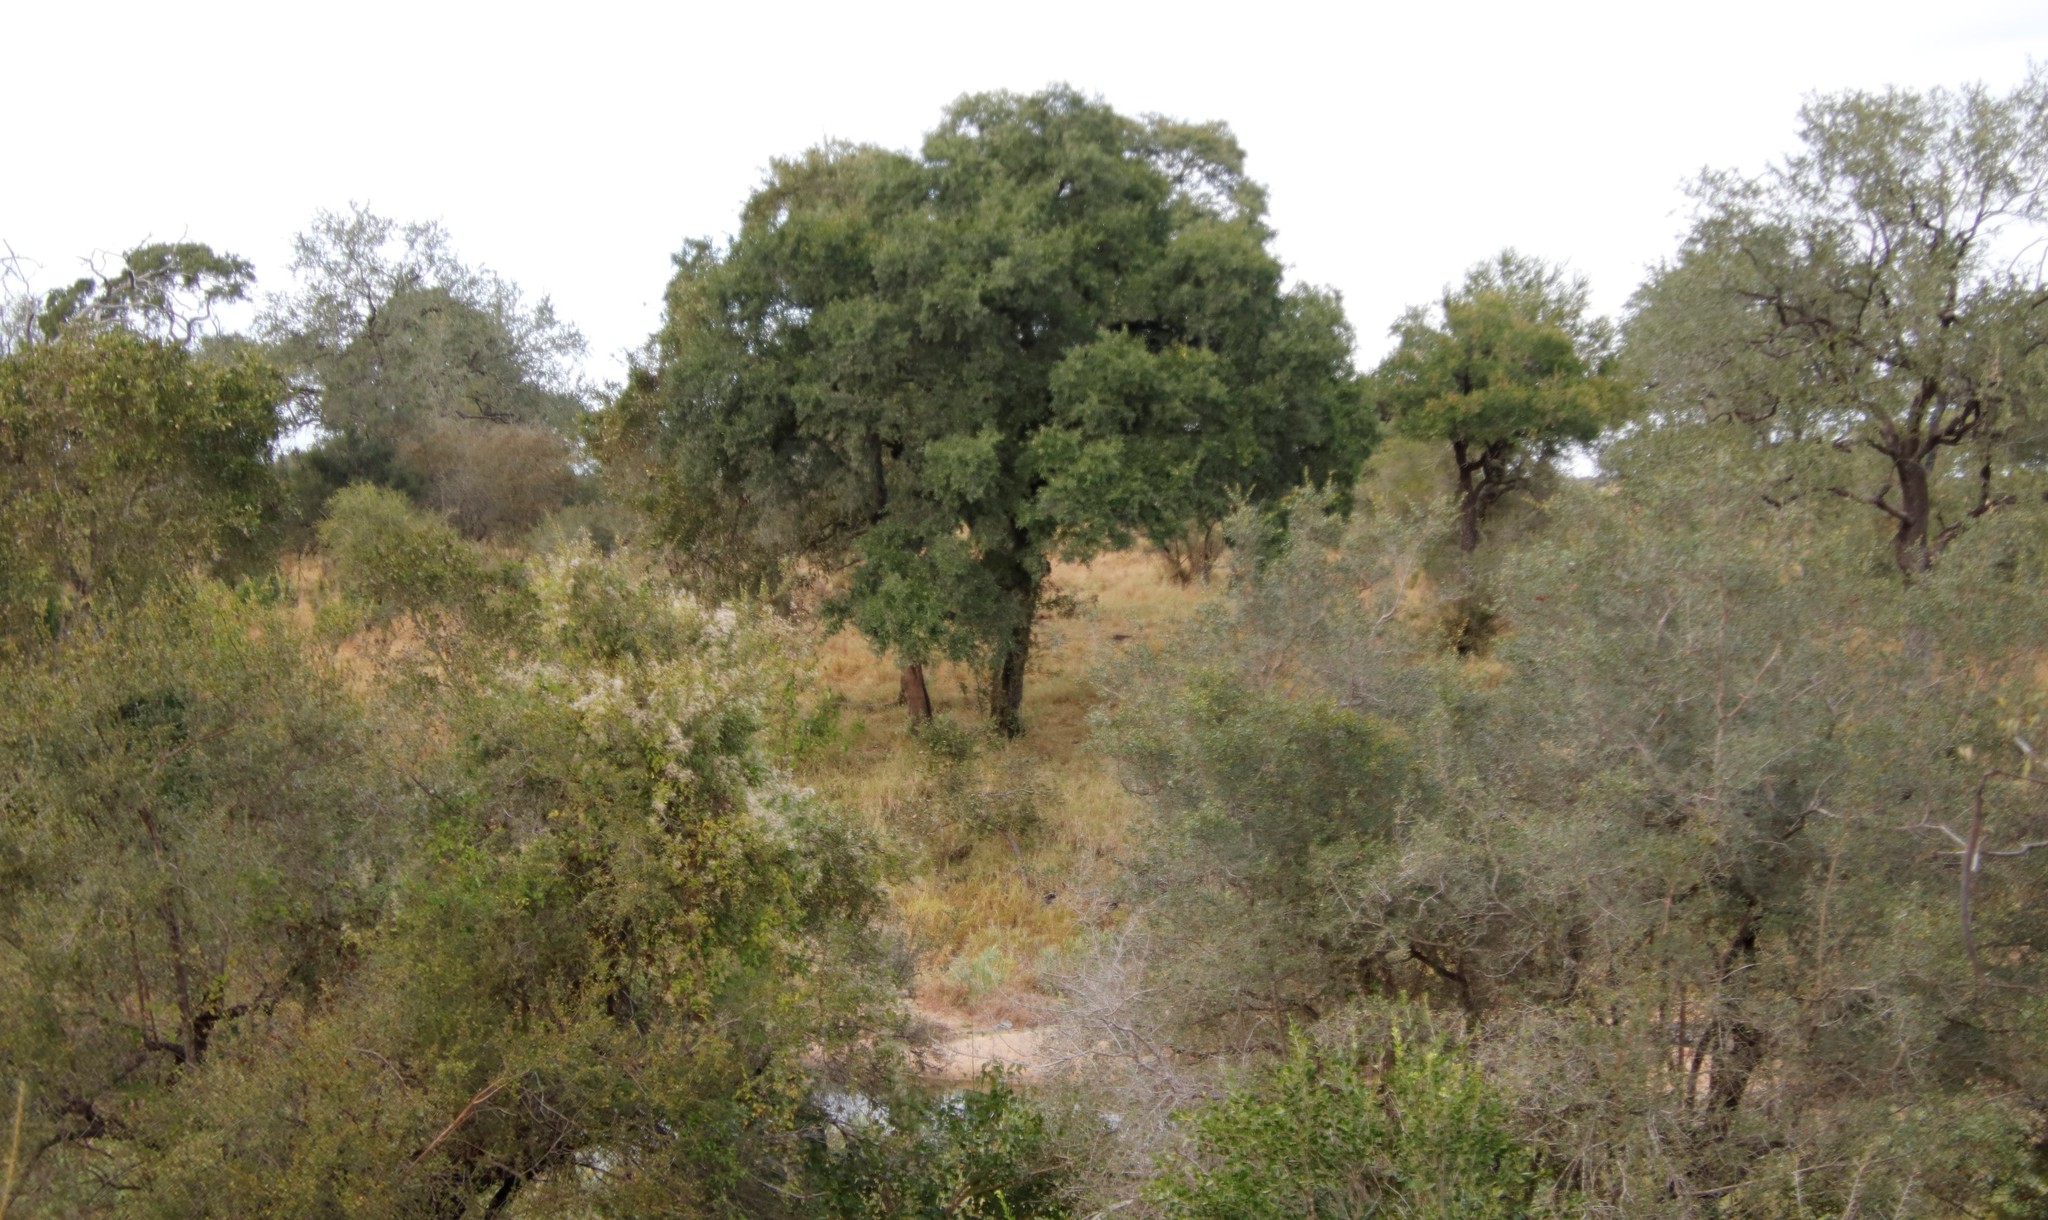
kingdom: Plantae
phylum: Tracheophyta
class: Magnoliopsida
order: Ericales
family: Ebenaceae
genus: Diospyros
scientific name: Diospyros mespiliformis
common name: Ebony diospyros
